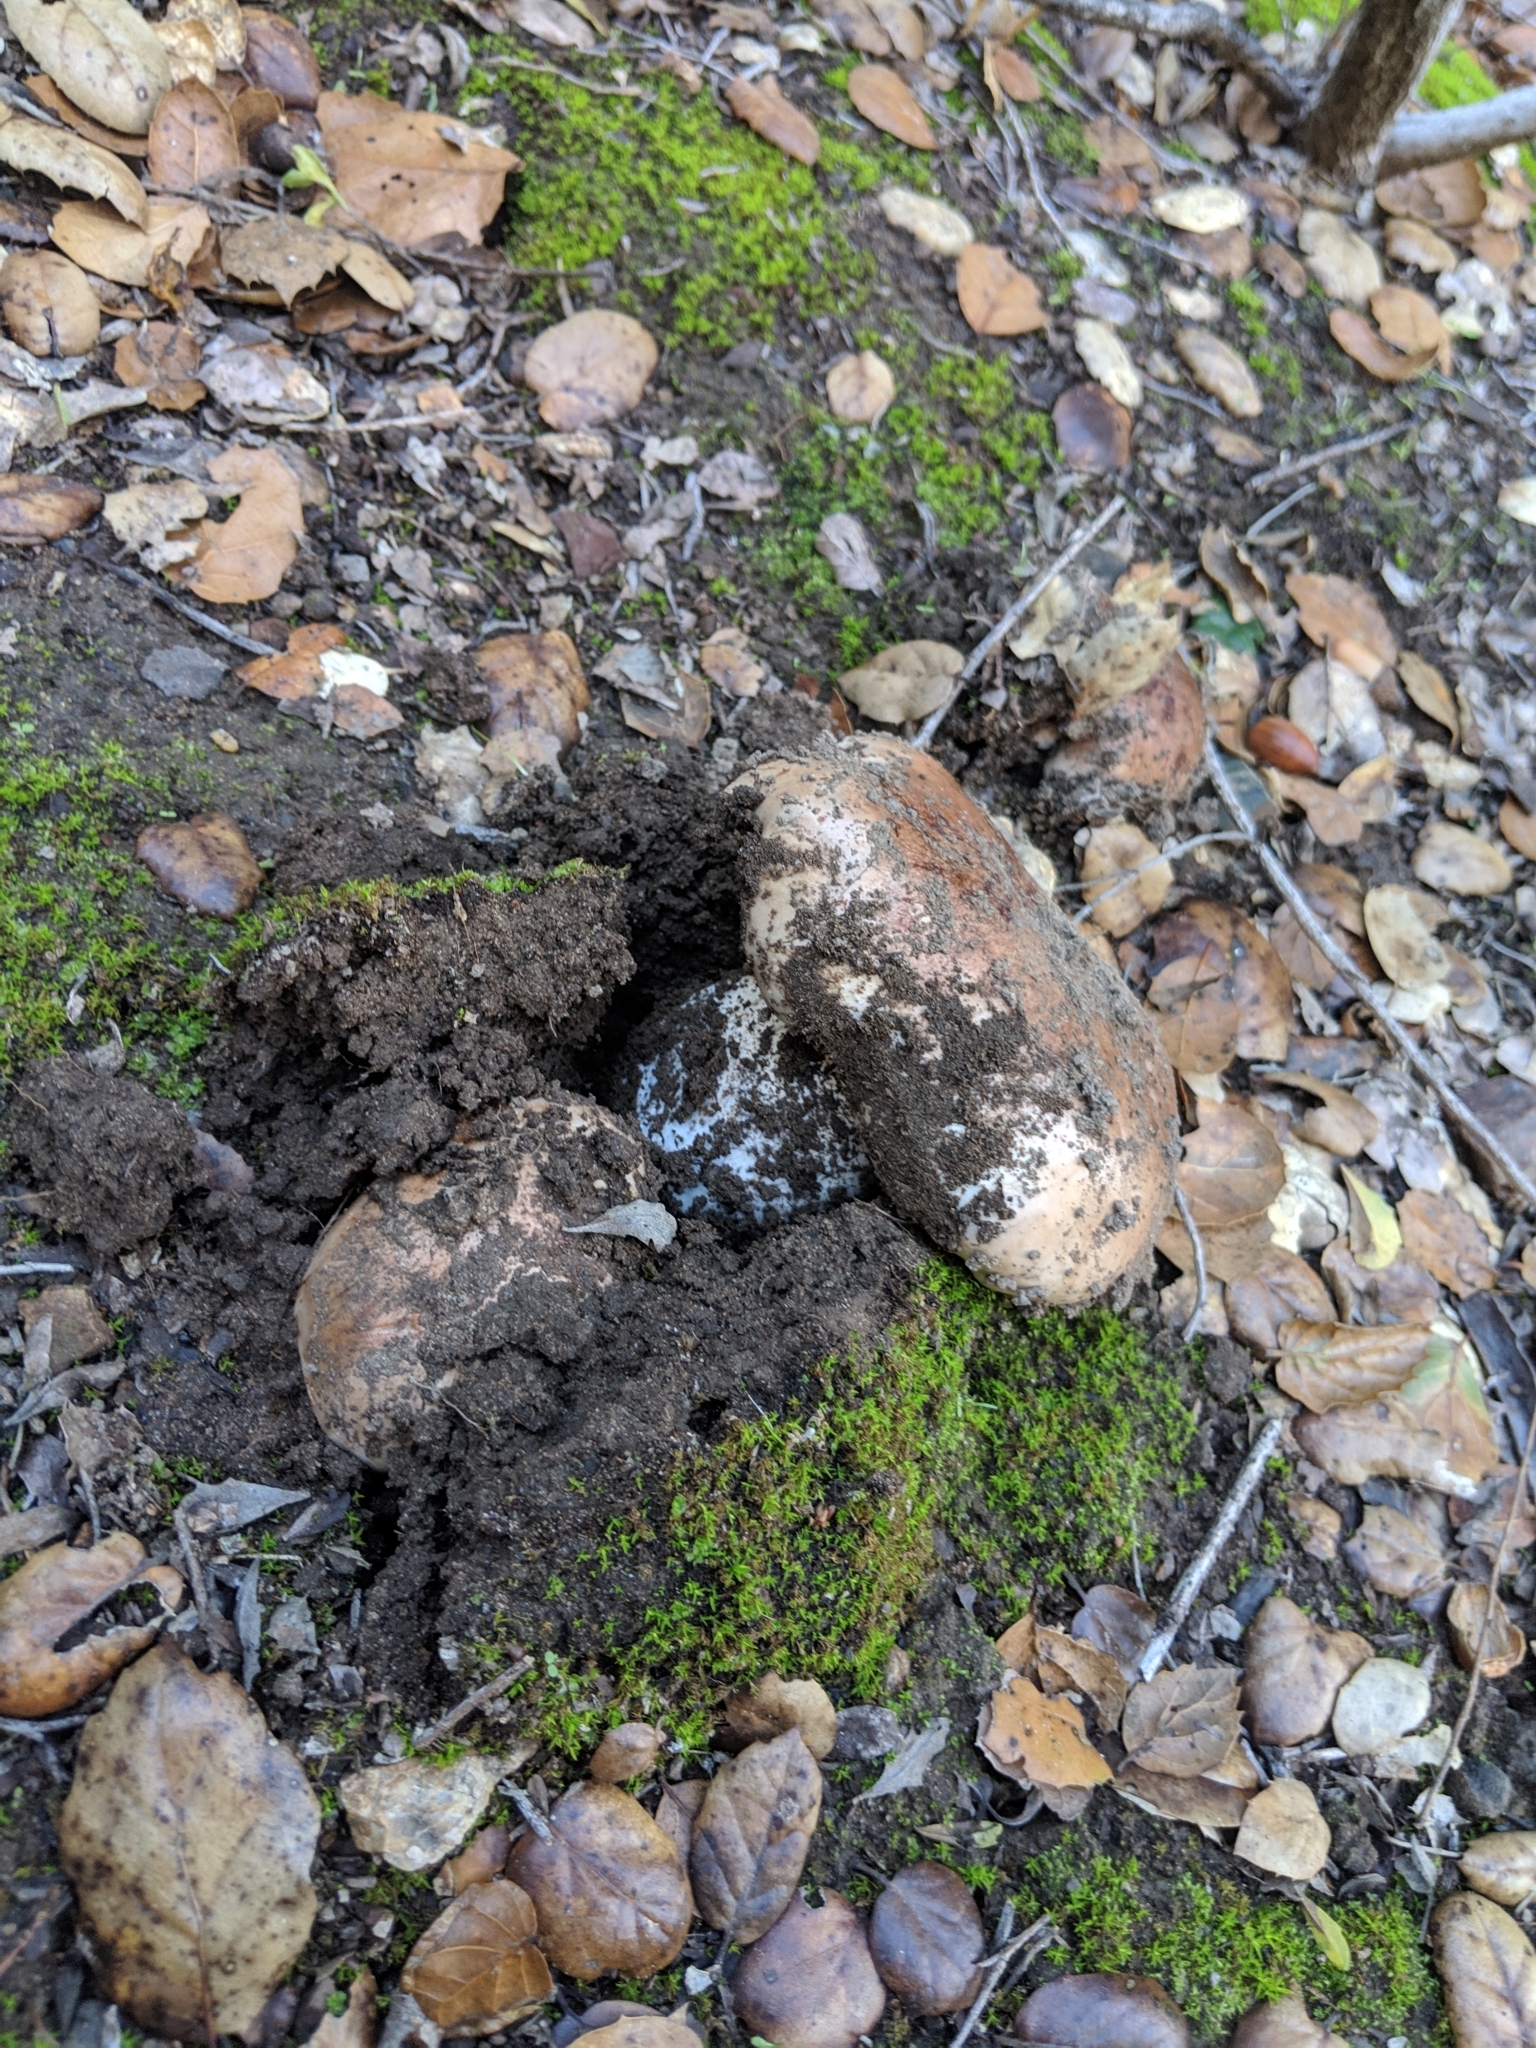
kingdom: Fungi
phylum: Basidiomycota
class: Agaricomycetes
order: Agaricales
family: Tricholomataceae
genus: Melanoleuca
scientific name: Melanoleuca dryophila
